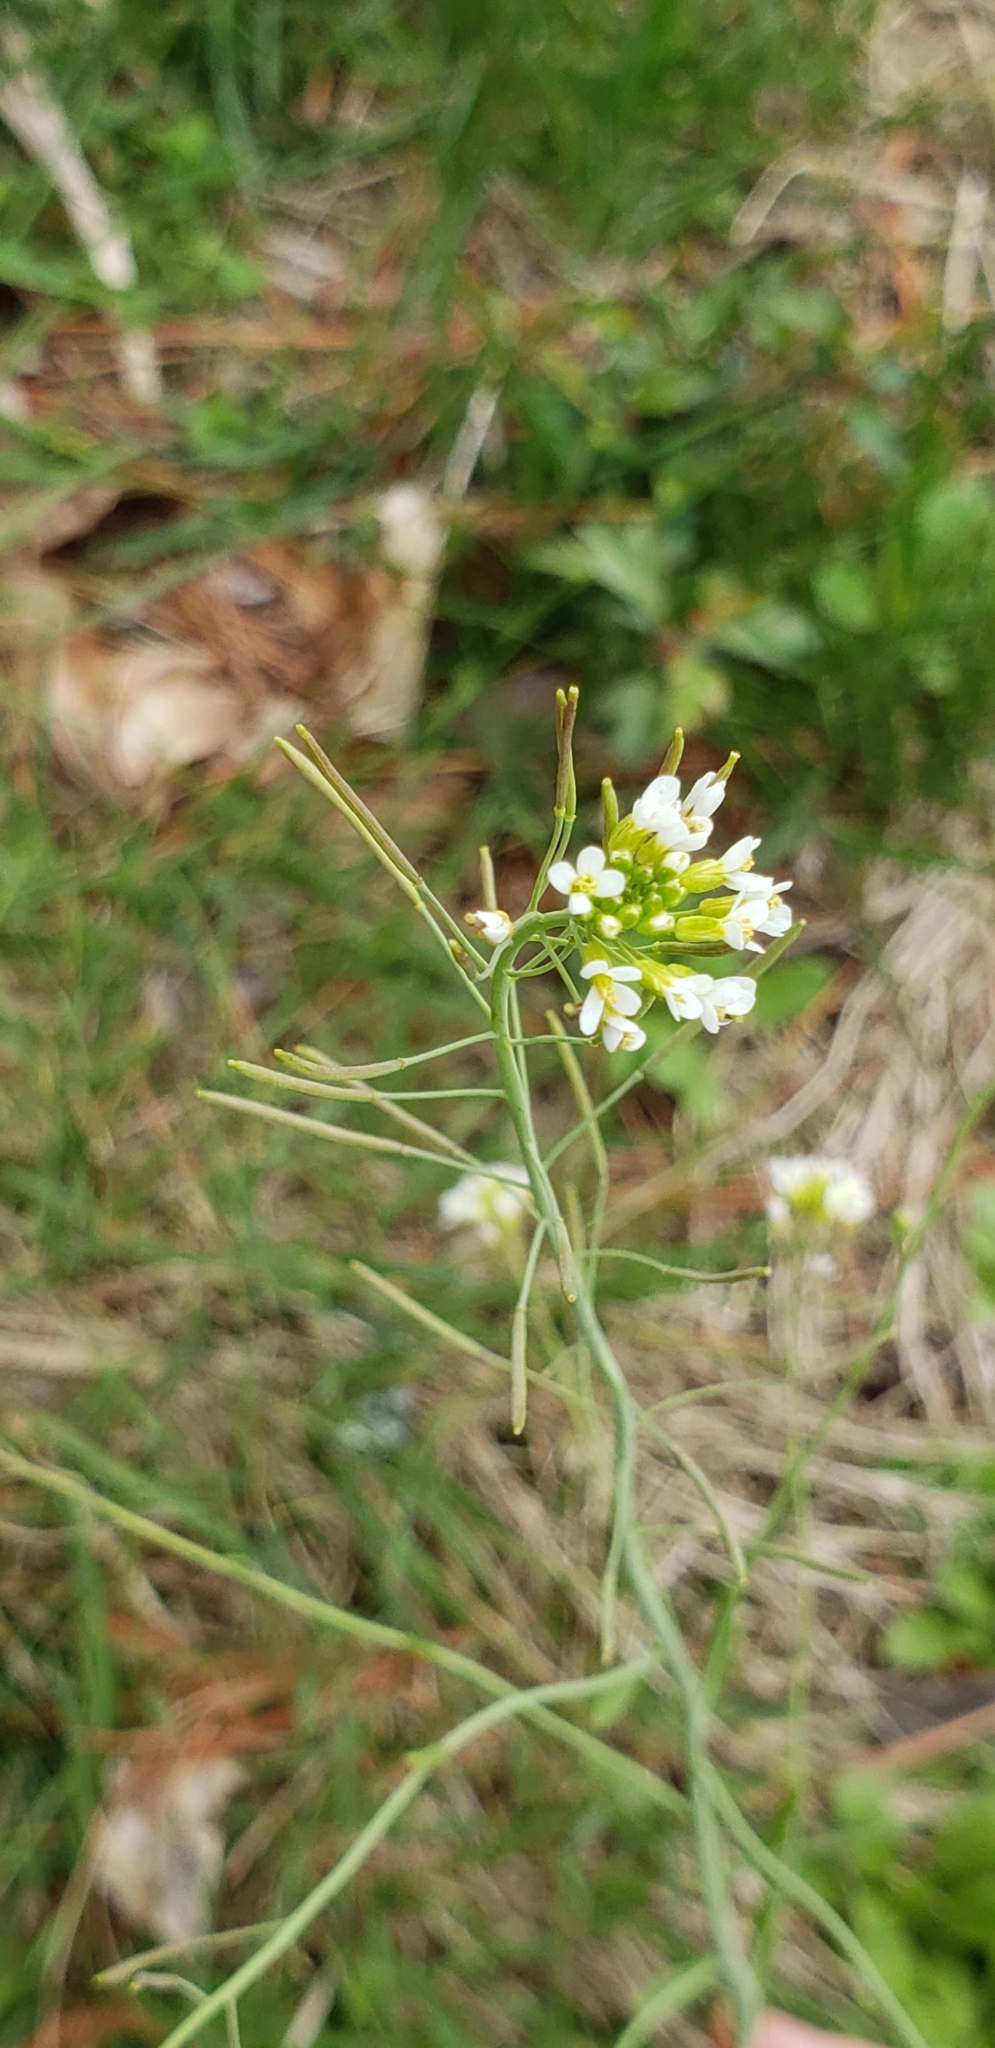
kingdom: Plantae
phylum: Tracheophyta
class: Magnoliopsida
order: Brassicales
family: Brassicaceae
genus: Arabidopsis
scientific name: Arabidopsis thaliana
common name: Thale cress
